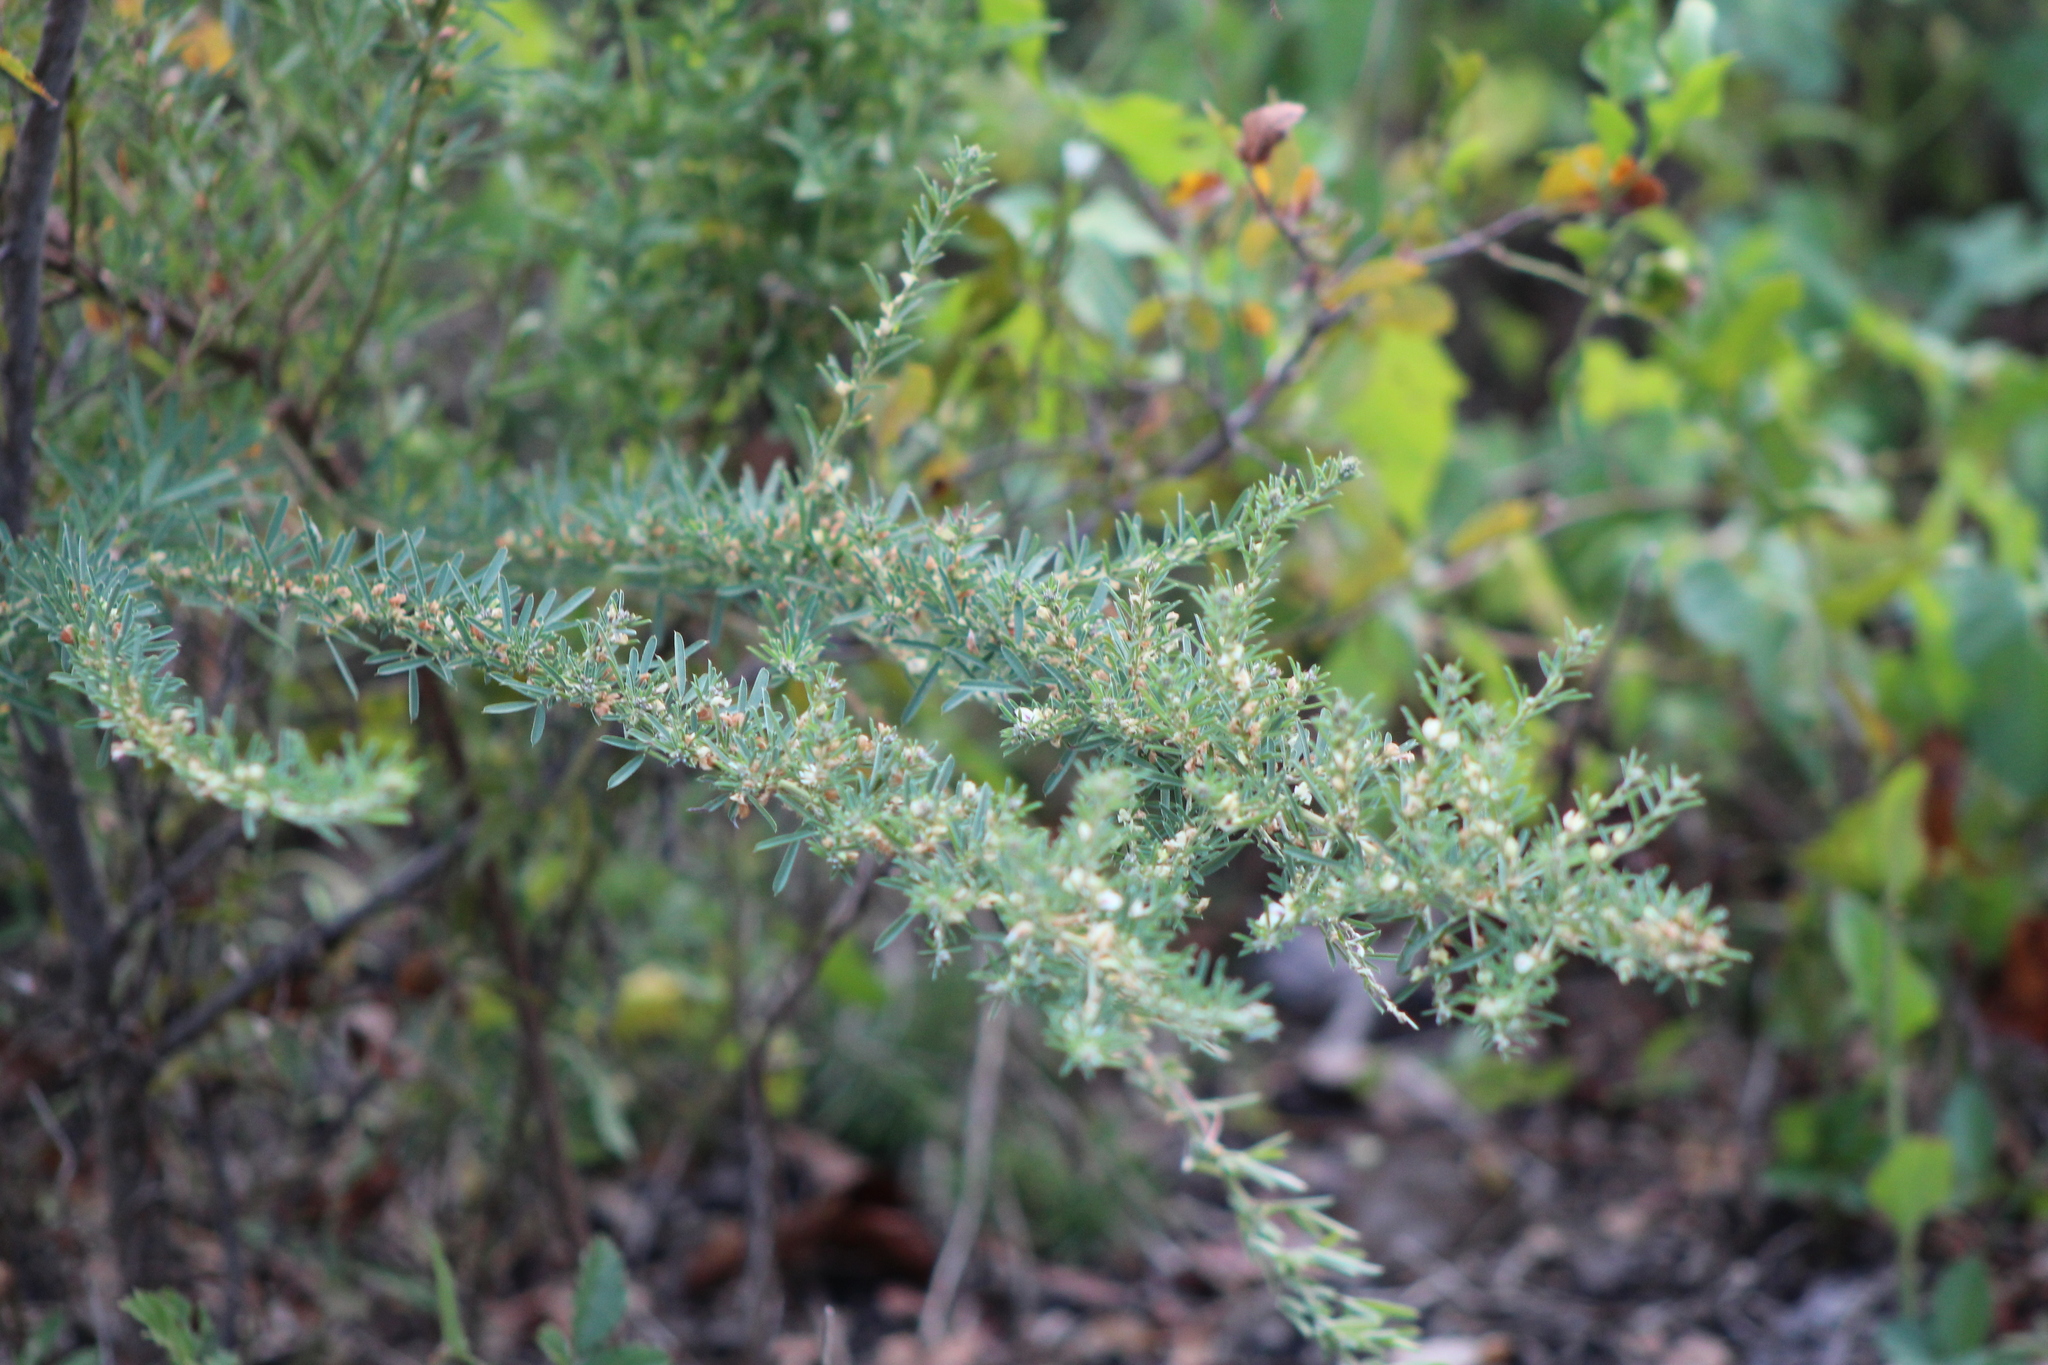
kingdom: Plantae
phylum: Tracheophyta
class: Magnoliopsida
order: Fabales
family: Fabaceae
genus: Lespedeza
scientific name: Lespedeza cuneata
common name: Chinese bush-clover
